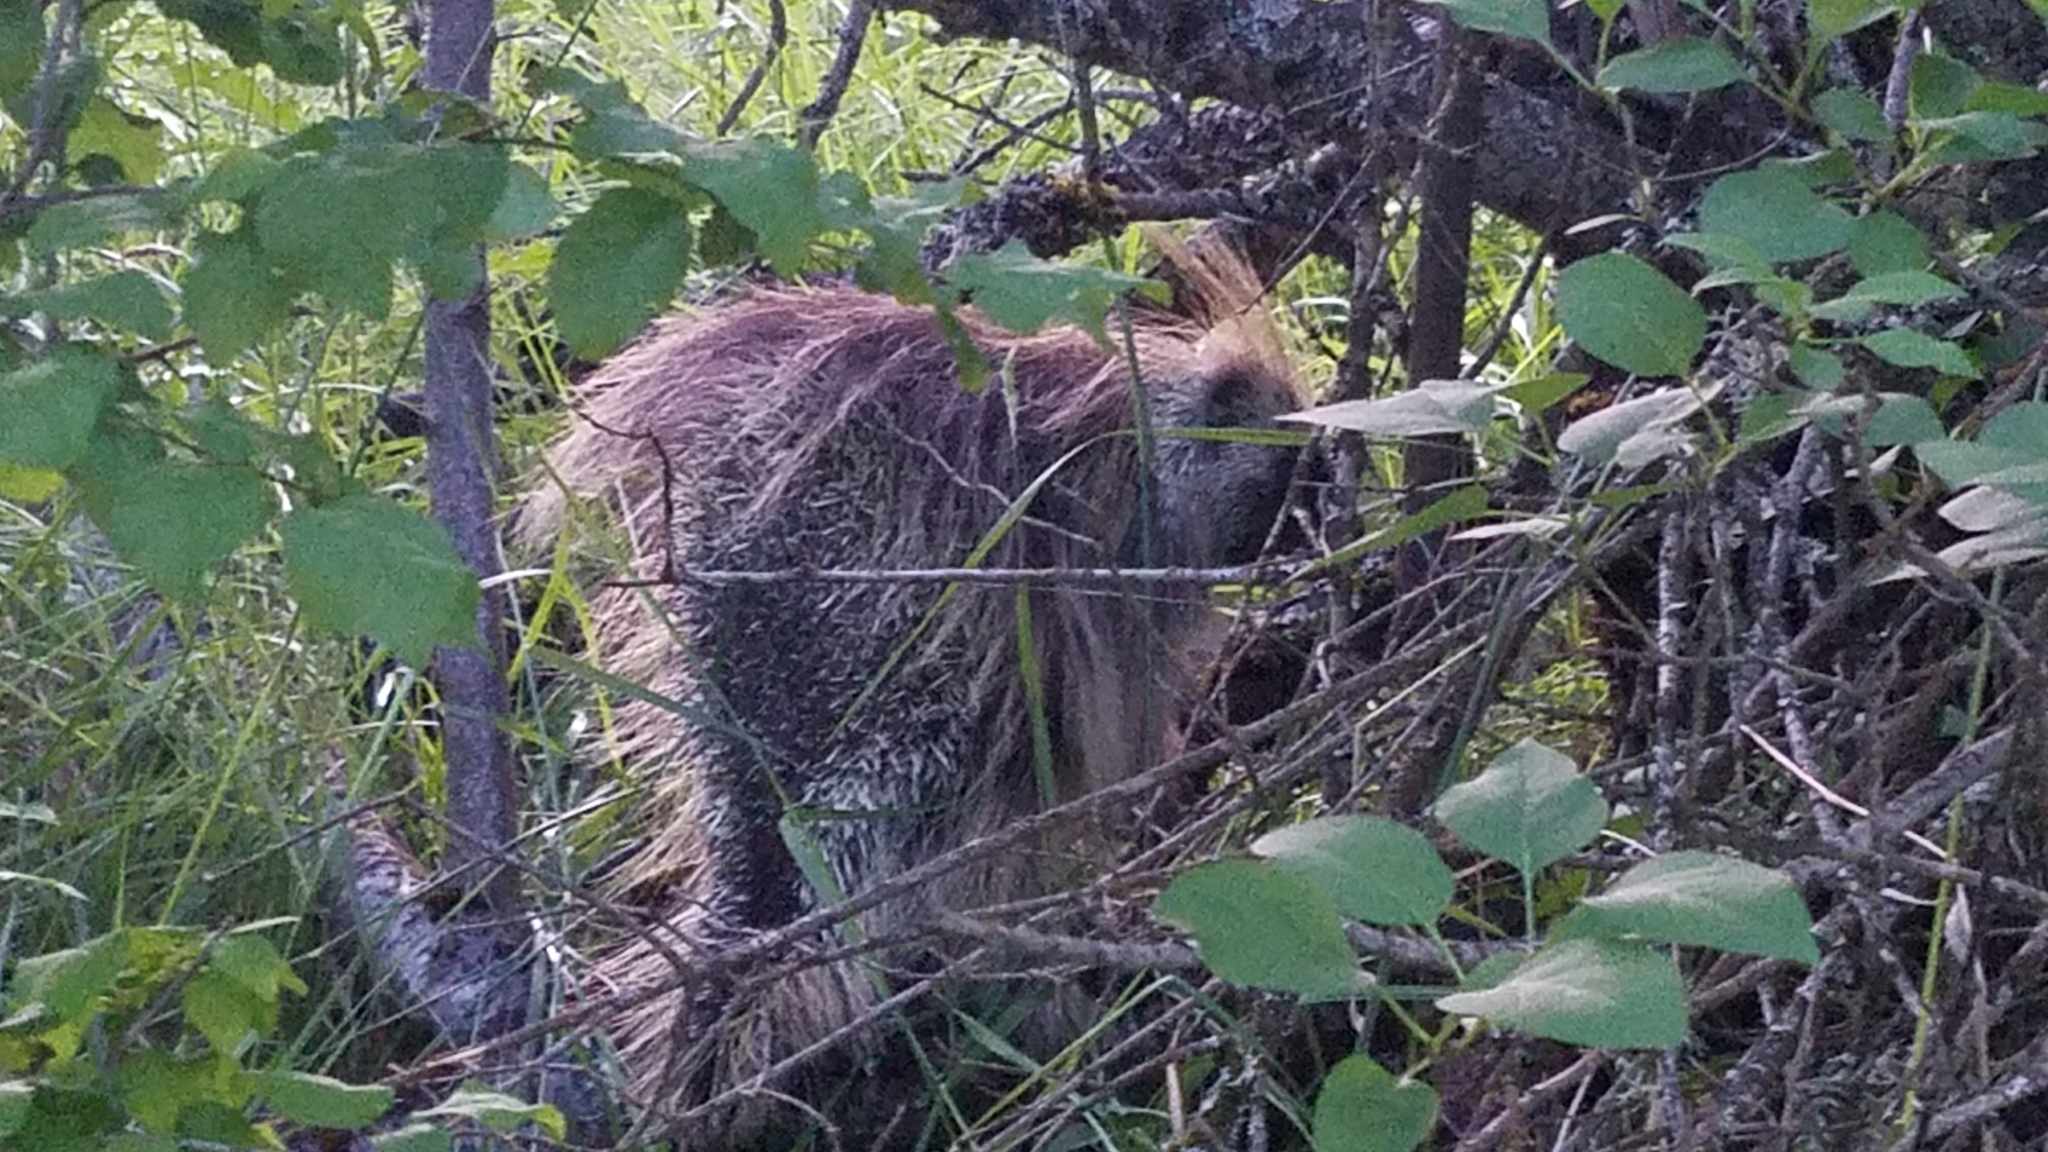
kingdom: Animalia
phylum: Chordata
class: Mammalia
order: Rodentia
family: Erethizontidae
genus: Erethizon
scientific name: Erethizon dorsatus
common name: North american porcupine
